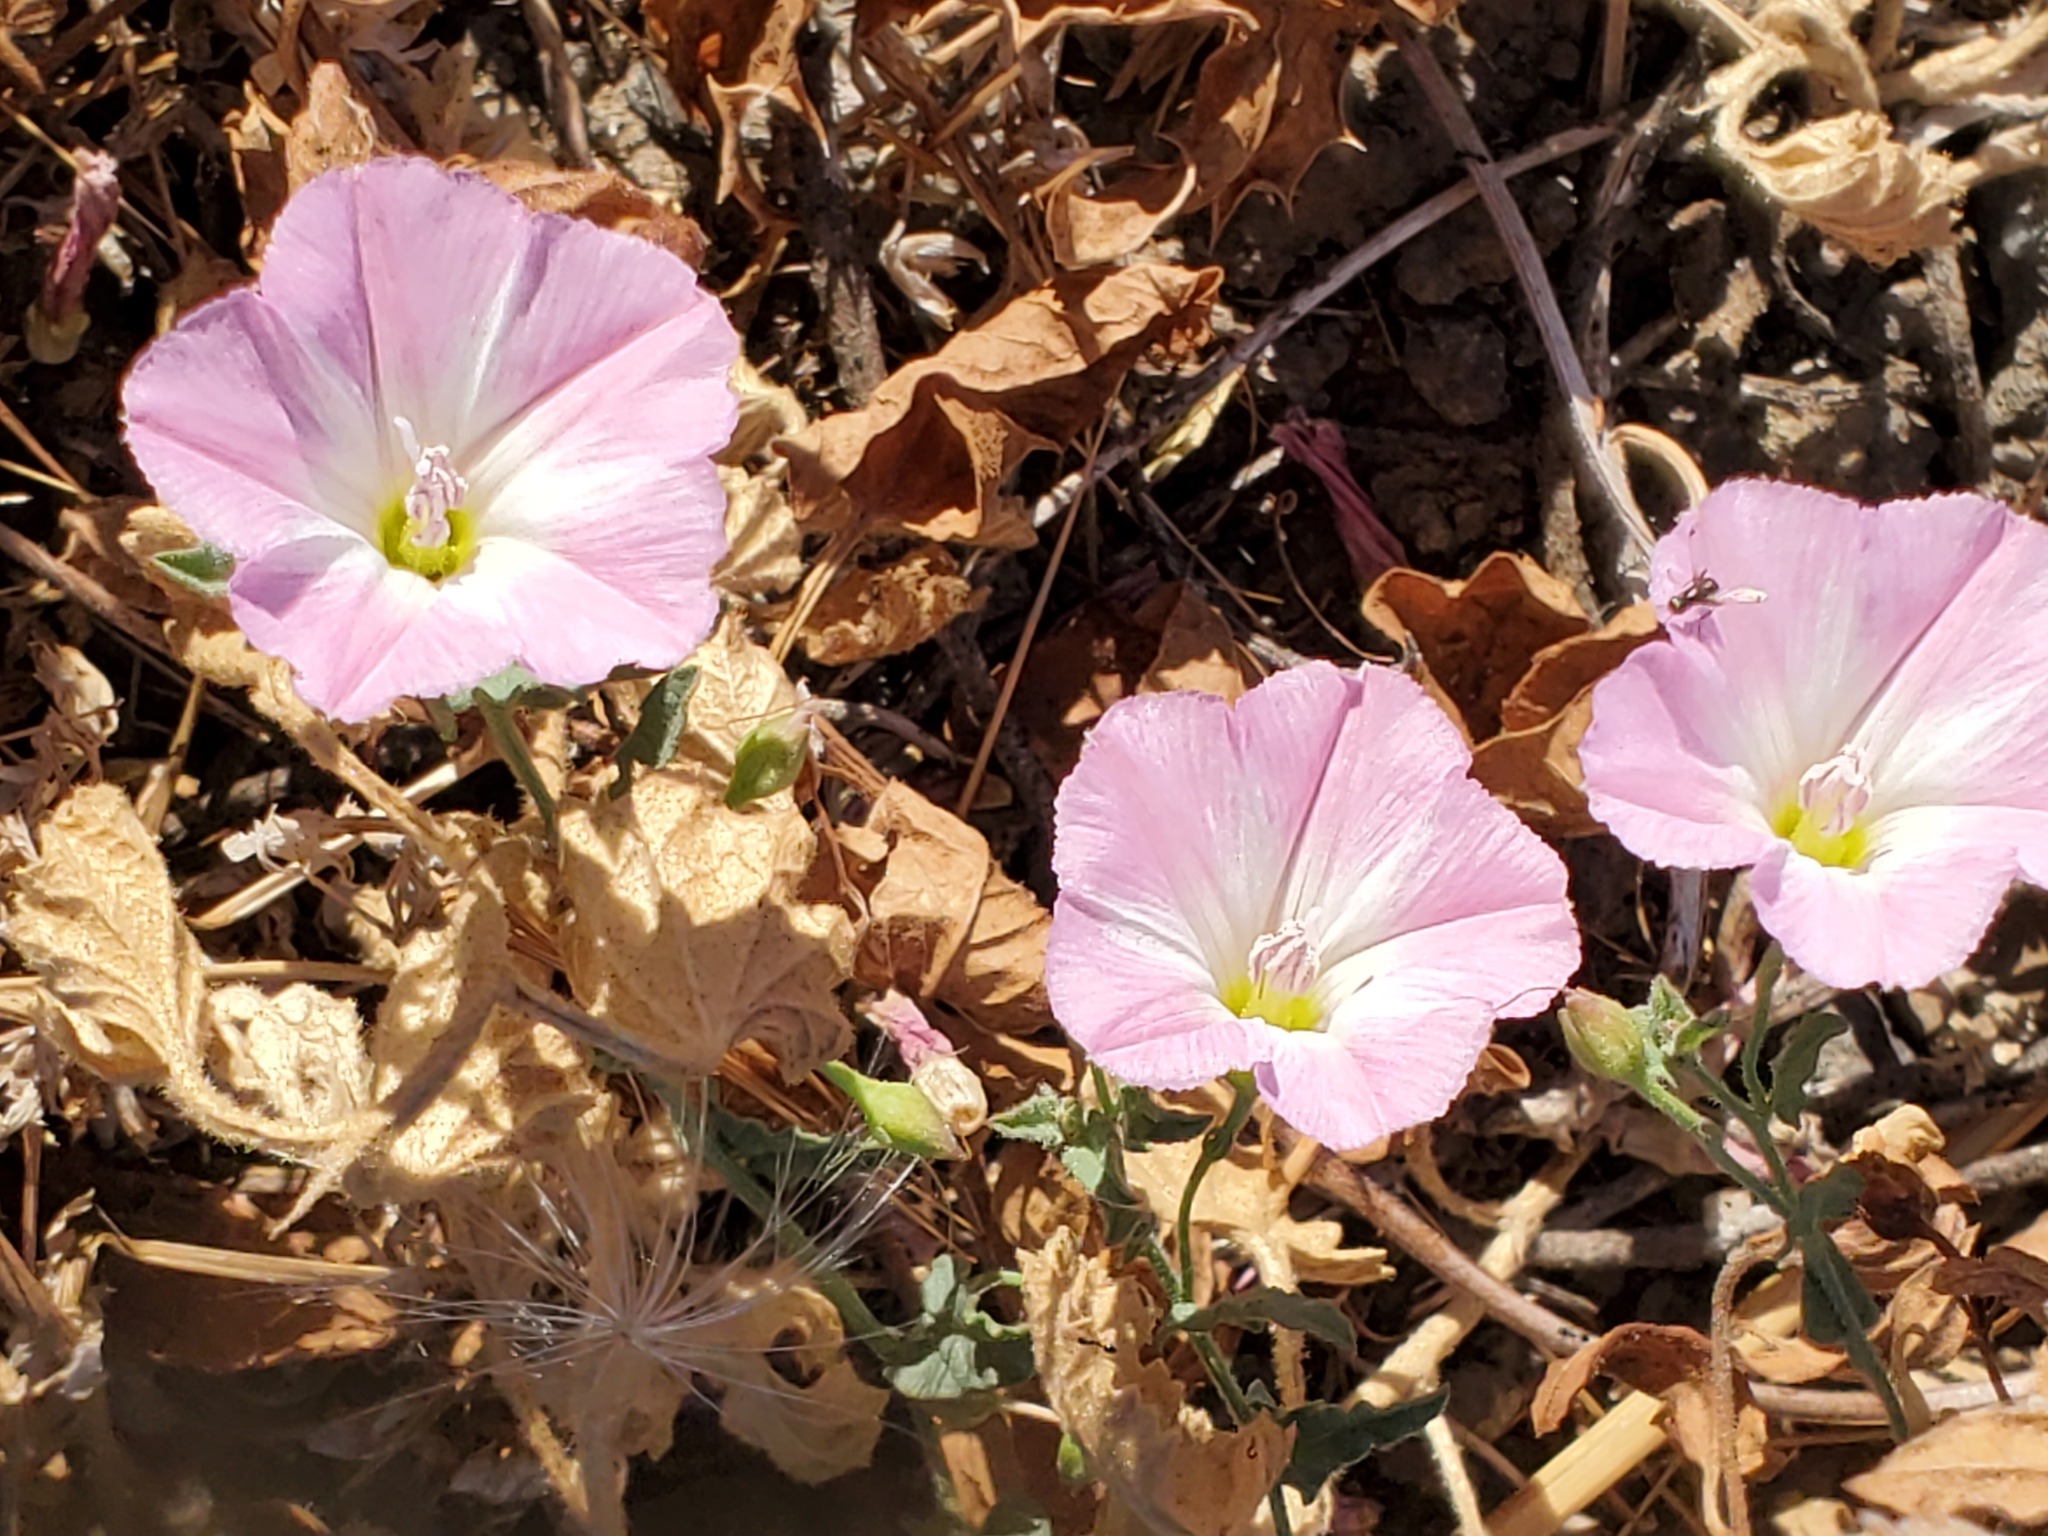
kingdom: Plantae
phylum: Tracheophyta
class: Magnoliopsida
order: Solanales
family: Convolvulaceae
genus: Convolvulus
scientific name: Convolvulus arvensis
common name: Field bindweed
